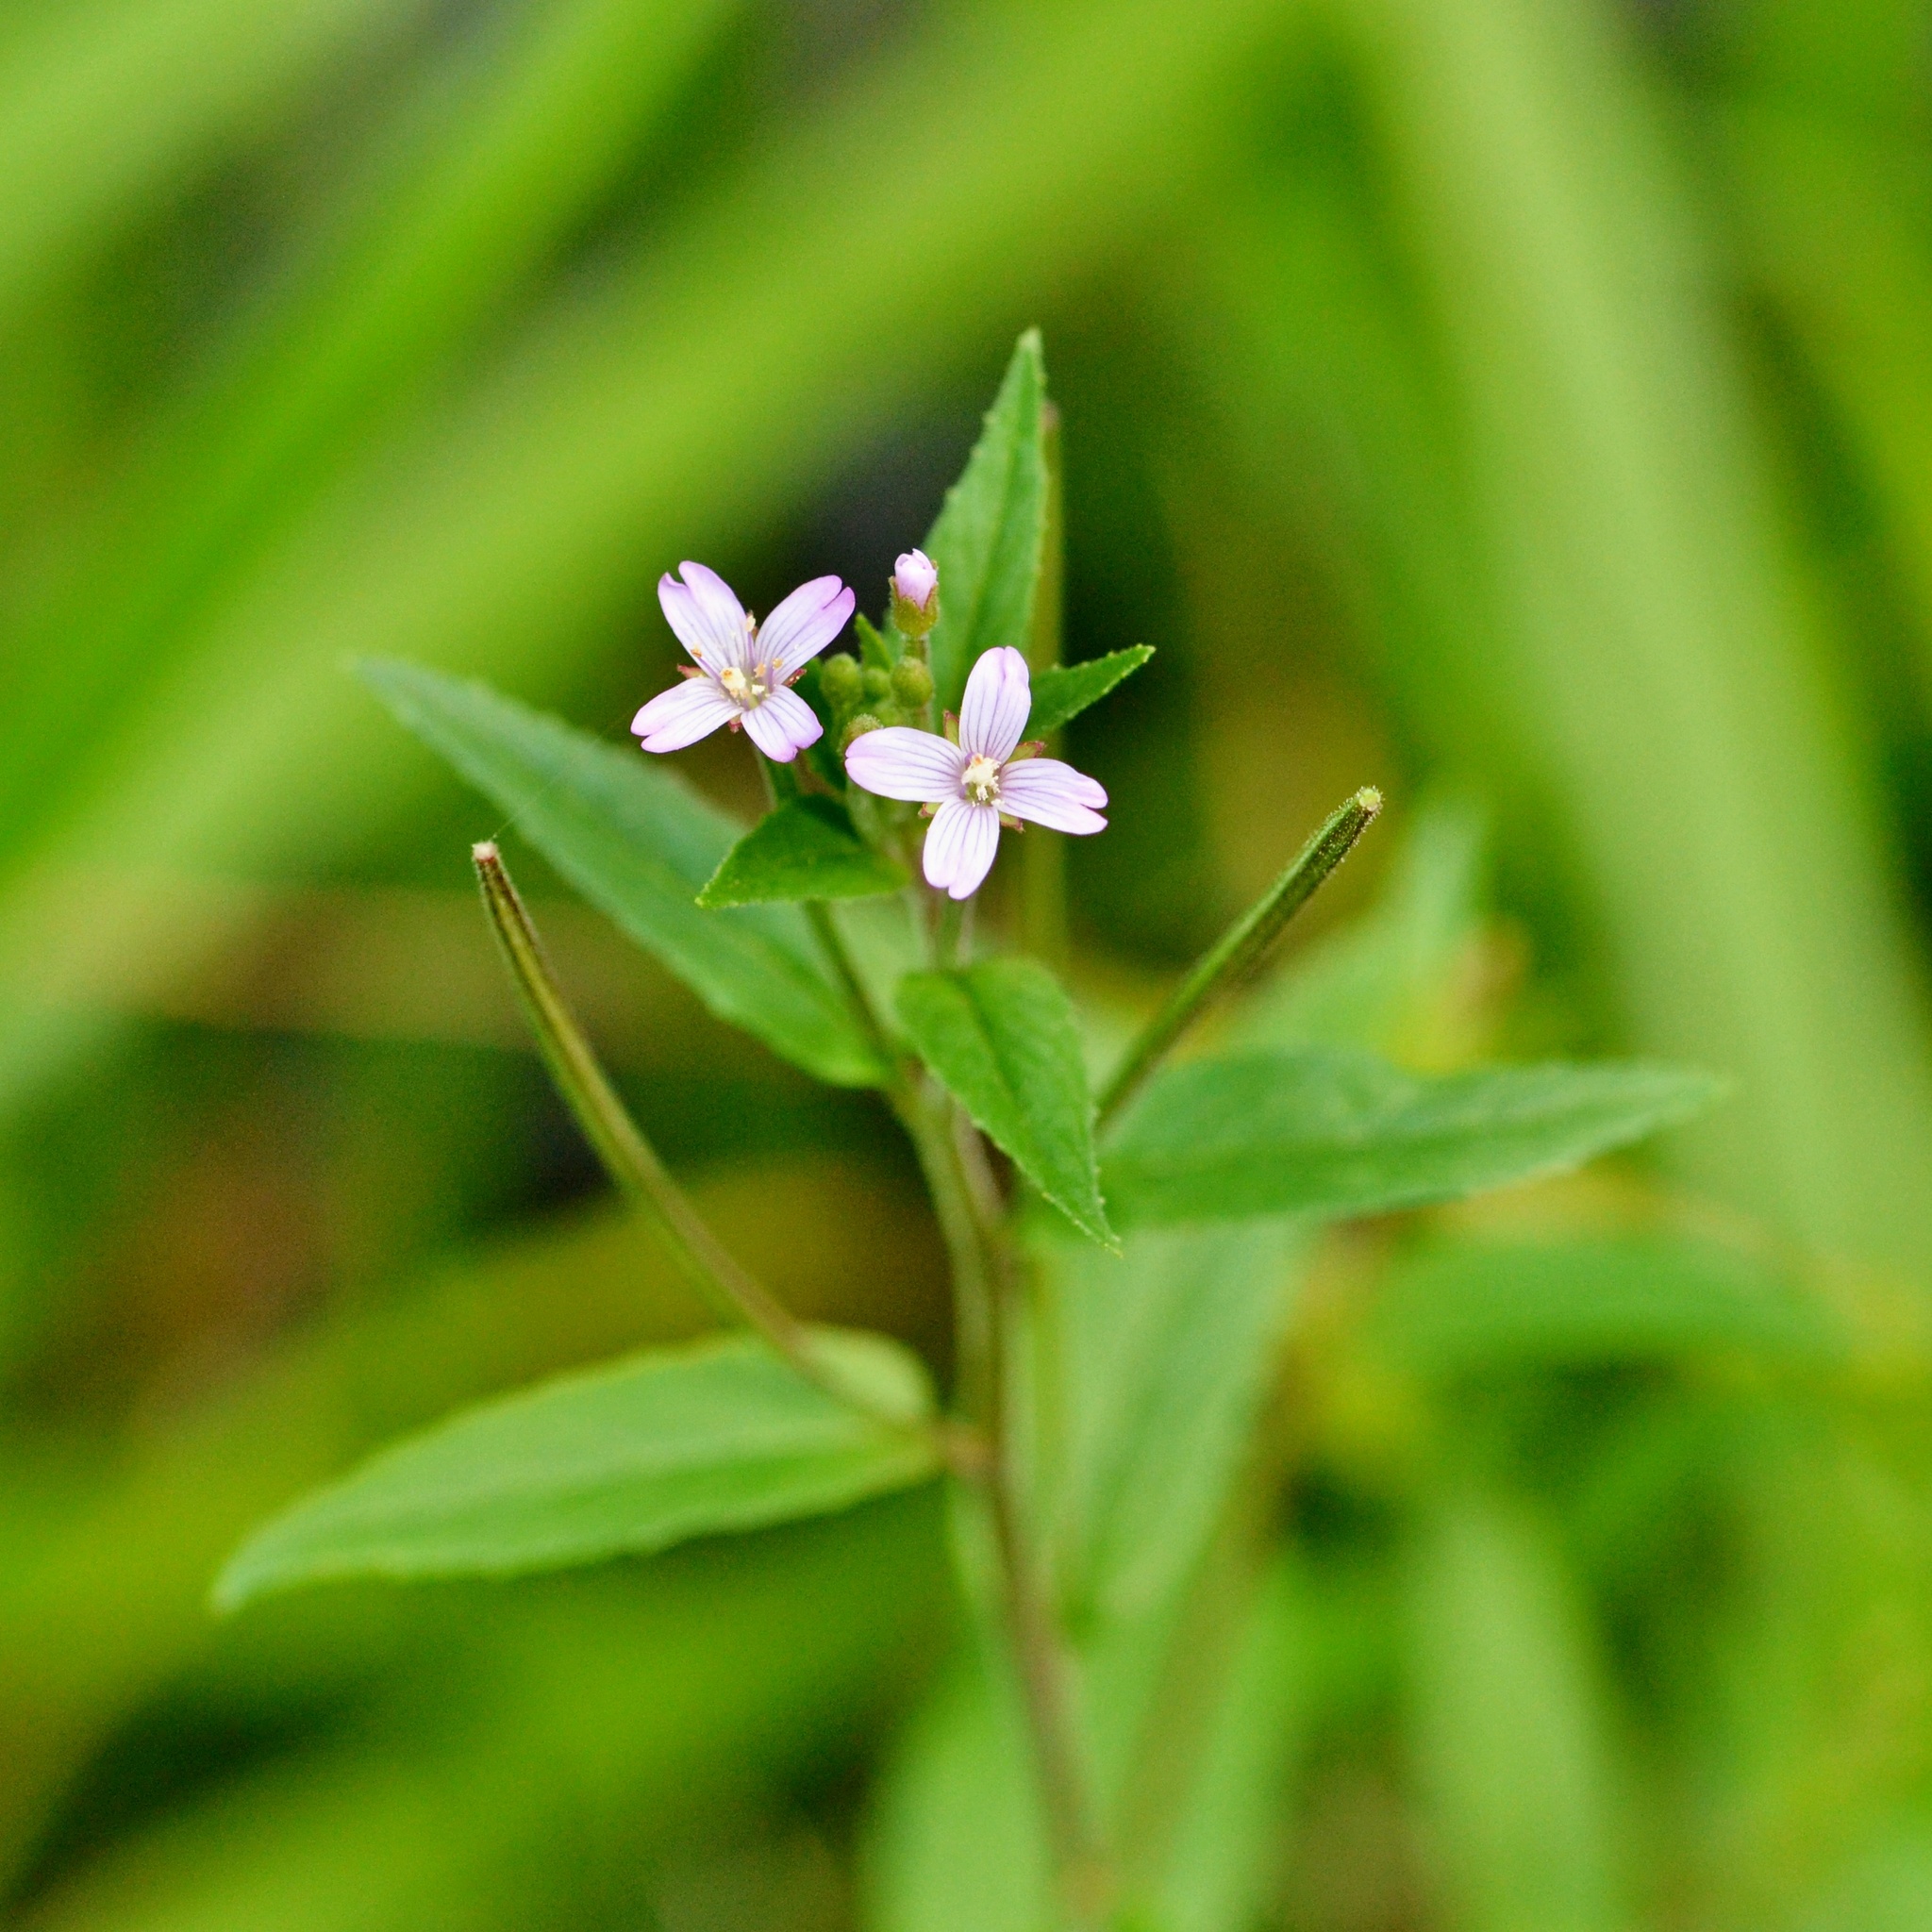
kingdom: Plantae
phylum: Tracheophyta
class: Magnoliopsida
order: Myrtales
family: Onagraceae
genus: Epilobium
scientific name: Epilobium ciliatum
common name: American willowherb
